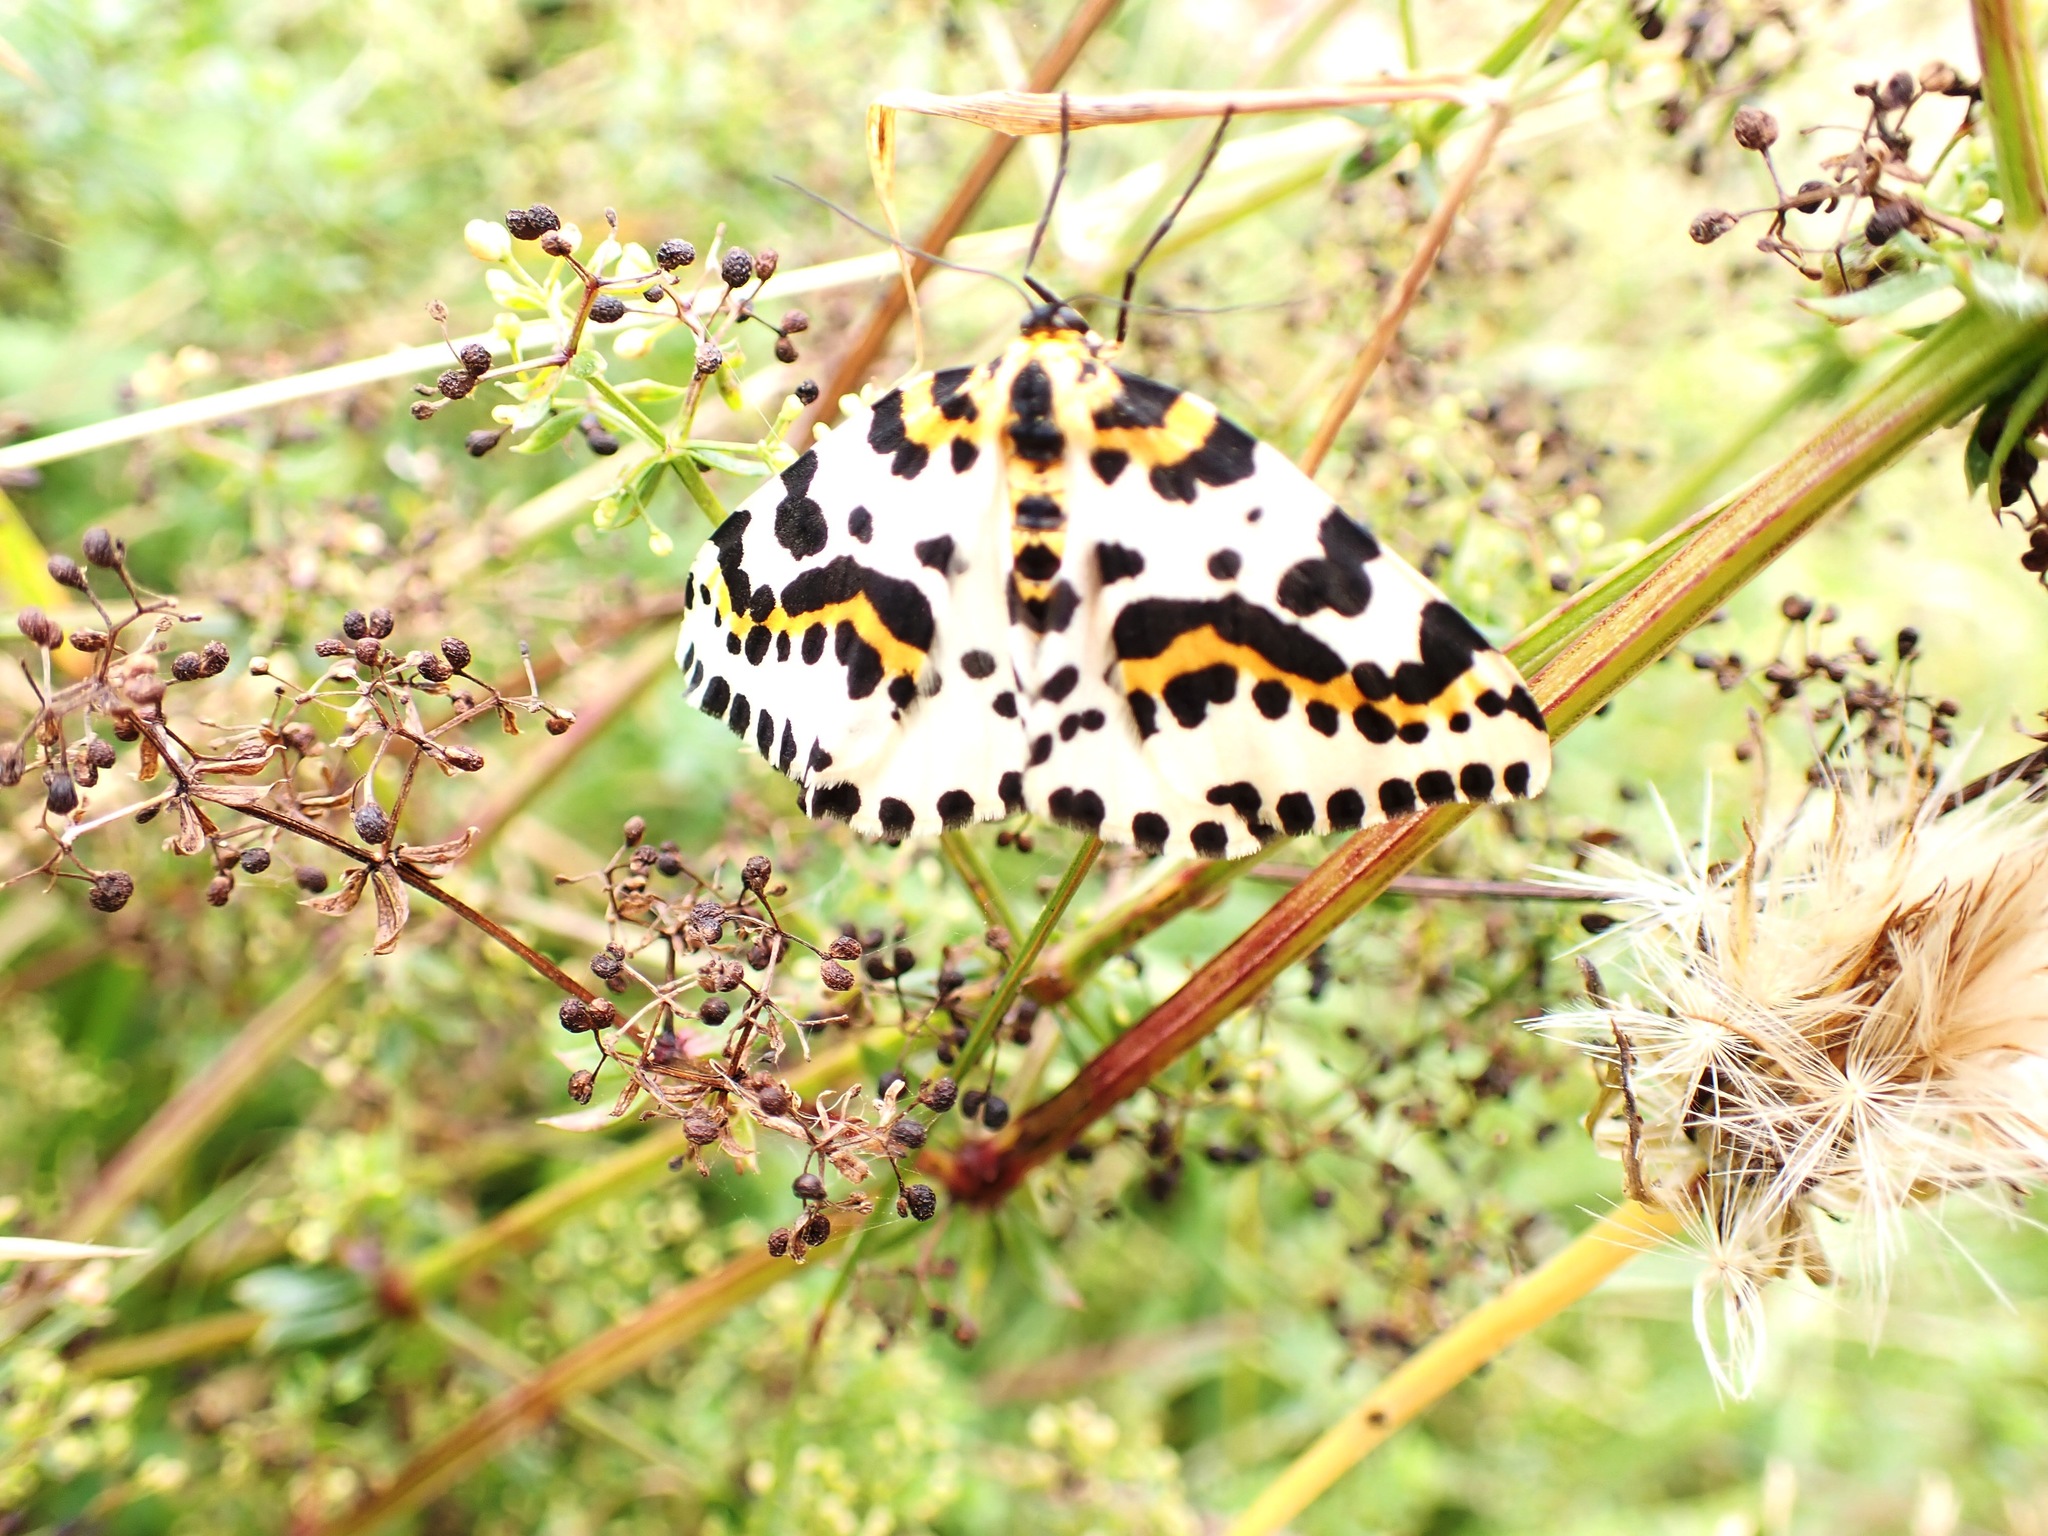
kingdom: Animalia
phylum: Arthropoda
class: Insecta
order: Lepidoptera
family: Geometridae
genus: Abraxas
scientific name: Abraxas grossulariata
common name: Magpie
